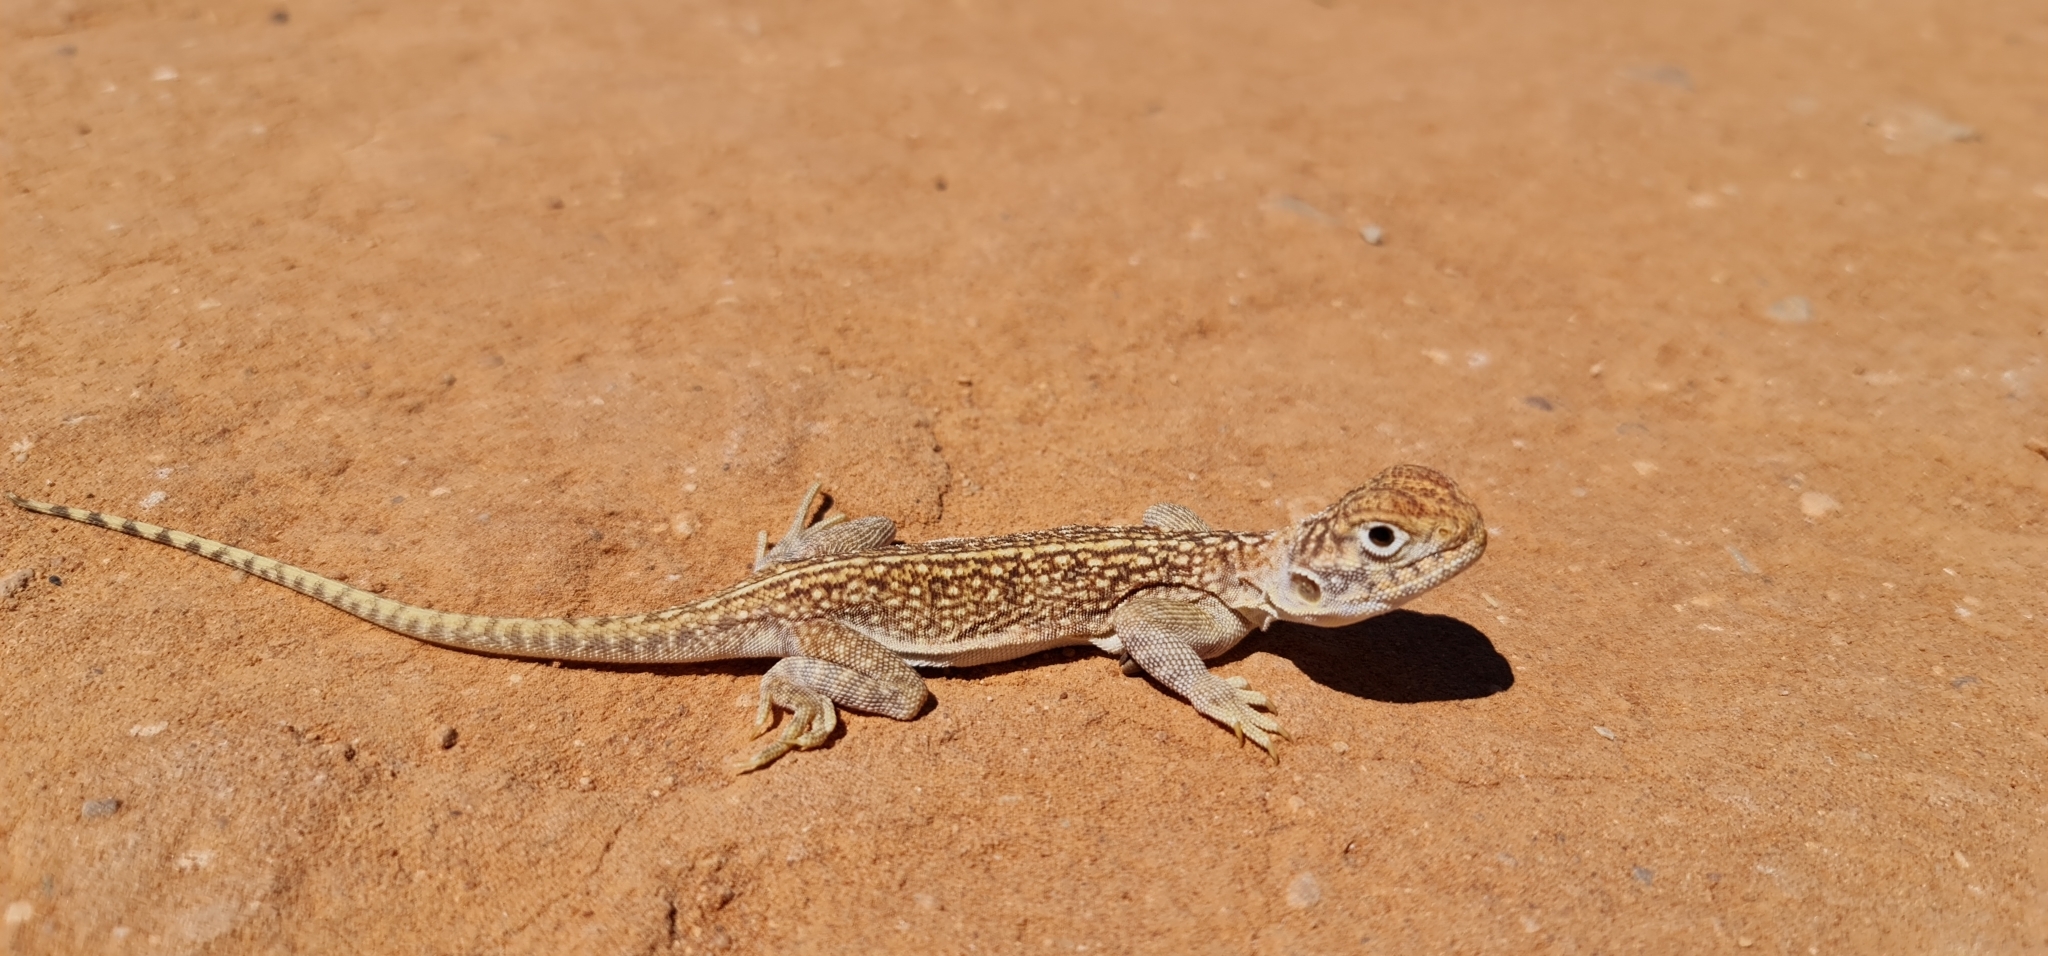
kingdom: Animalia
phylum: Chordata
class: Squamata
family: Agamidae
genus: Ctenophorus
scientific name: Ctenophorus nuchalis
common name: Central netted dragon
